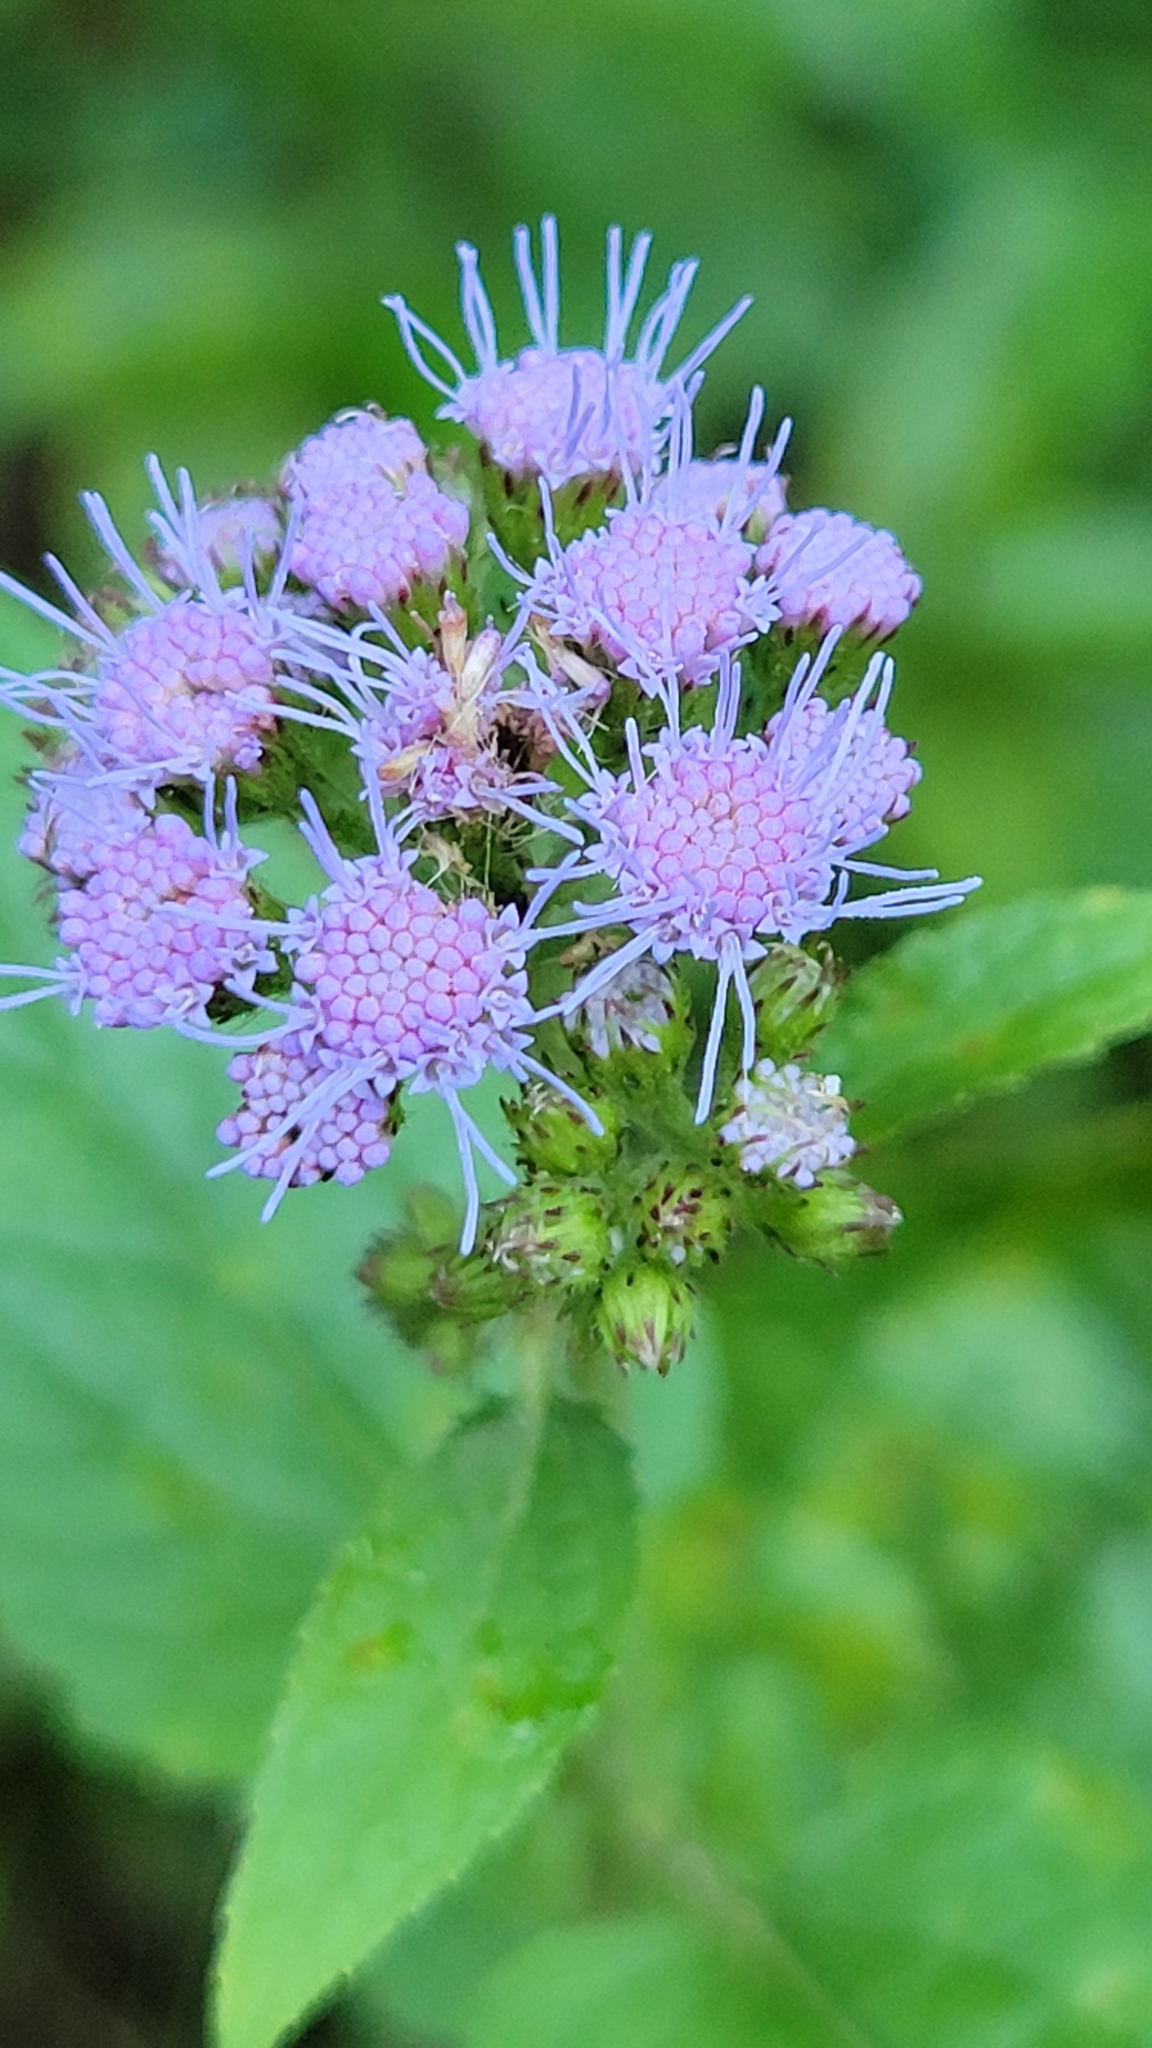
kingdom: Plantae
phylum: Tracheophyta
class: Magnoliopsida
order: Asterales
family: Asteraceae
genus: Conoclinium
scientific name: Conoclinium coelestinum
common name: Blue mistflower
